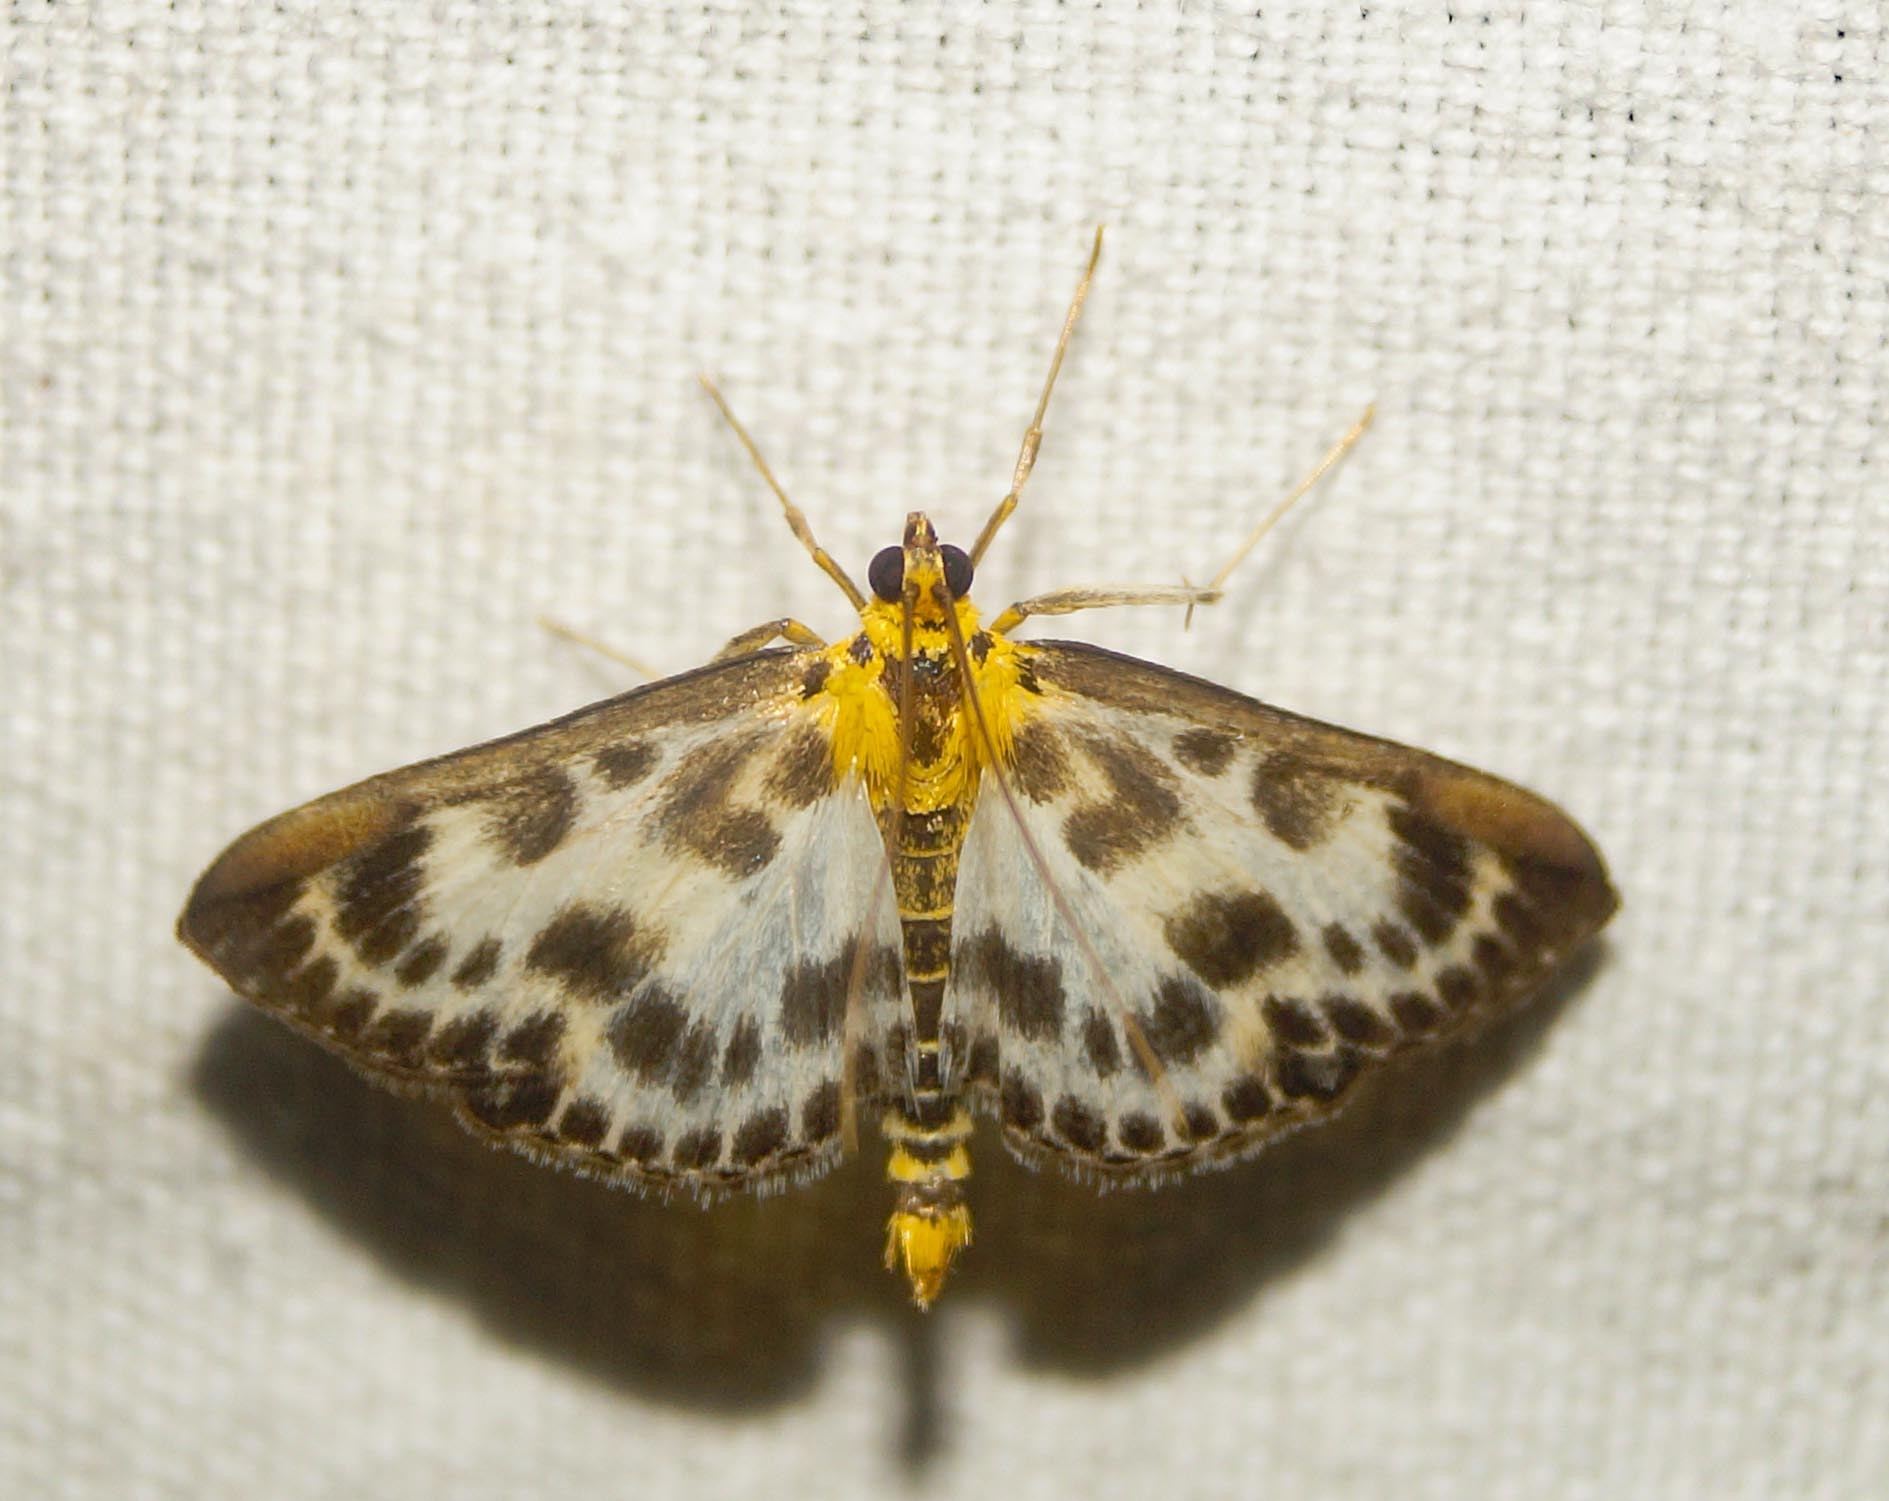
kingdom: Animalia
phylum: Arthropoda
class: Insecta
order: Lepidoptera
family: Crambidae
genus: Anania
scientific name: Anania hortulata
